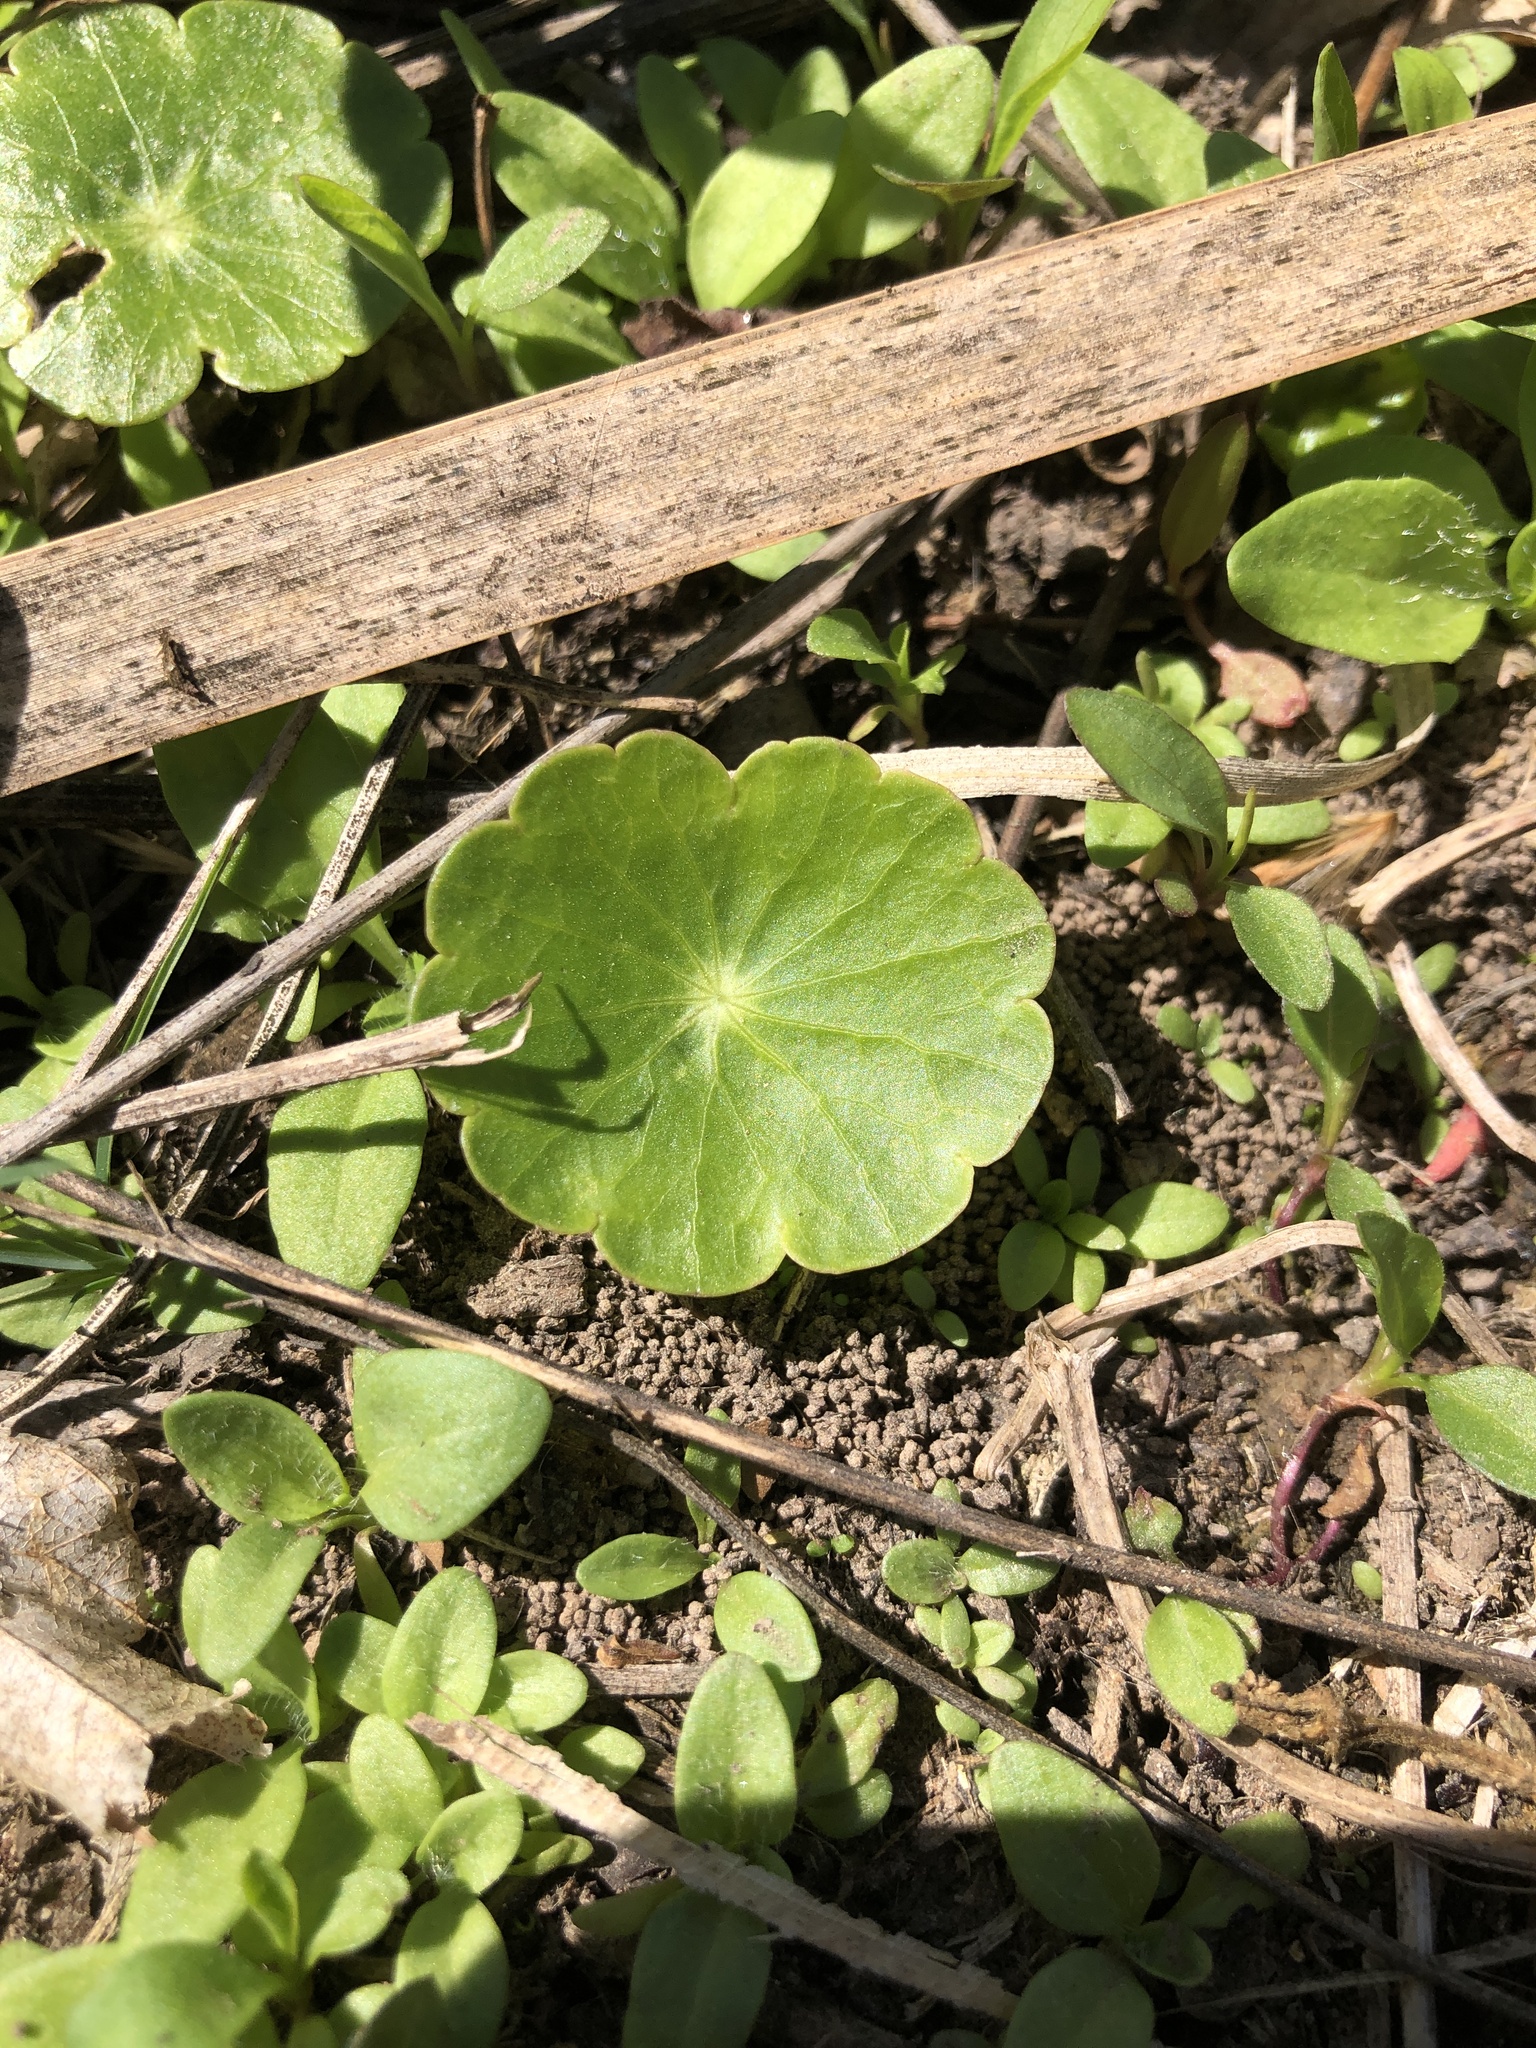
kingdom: Plantae
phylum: Tracheophyta
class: Magnoliopsida
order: Apiales
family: Araliaceae
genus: Hydrocotyle
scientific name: Hydrocotyle
